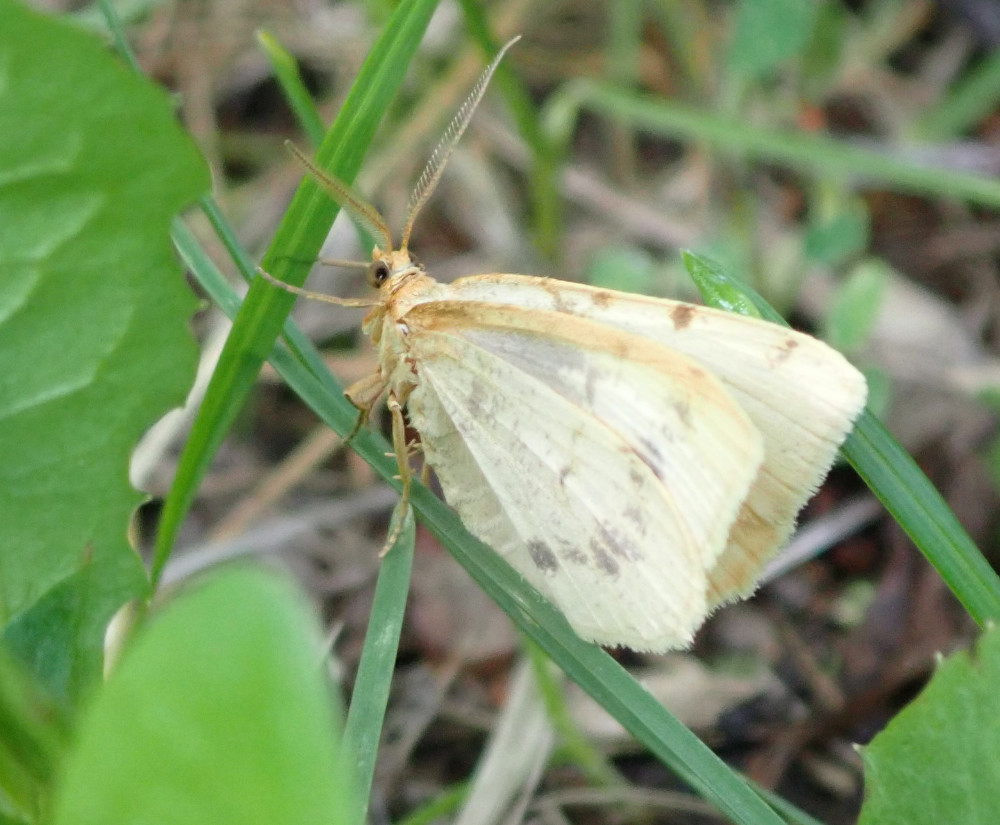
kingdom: Animalia
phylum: Arthropoda
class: Insecta
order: Lepidoptera
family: Geometridae
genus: Macaria
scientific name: Macaria ribearia
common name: Currant spanworm moth
